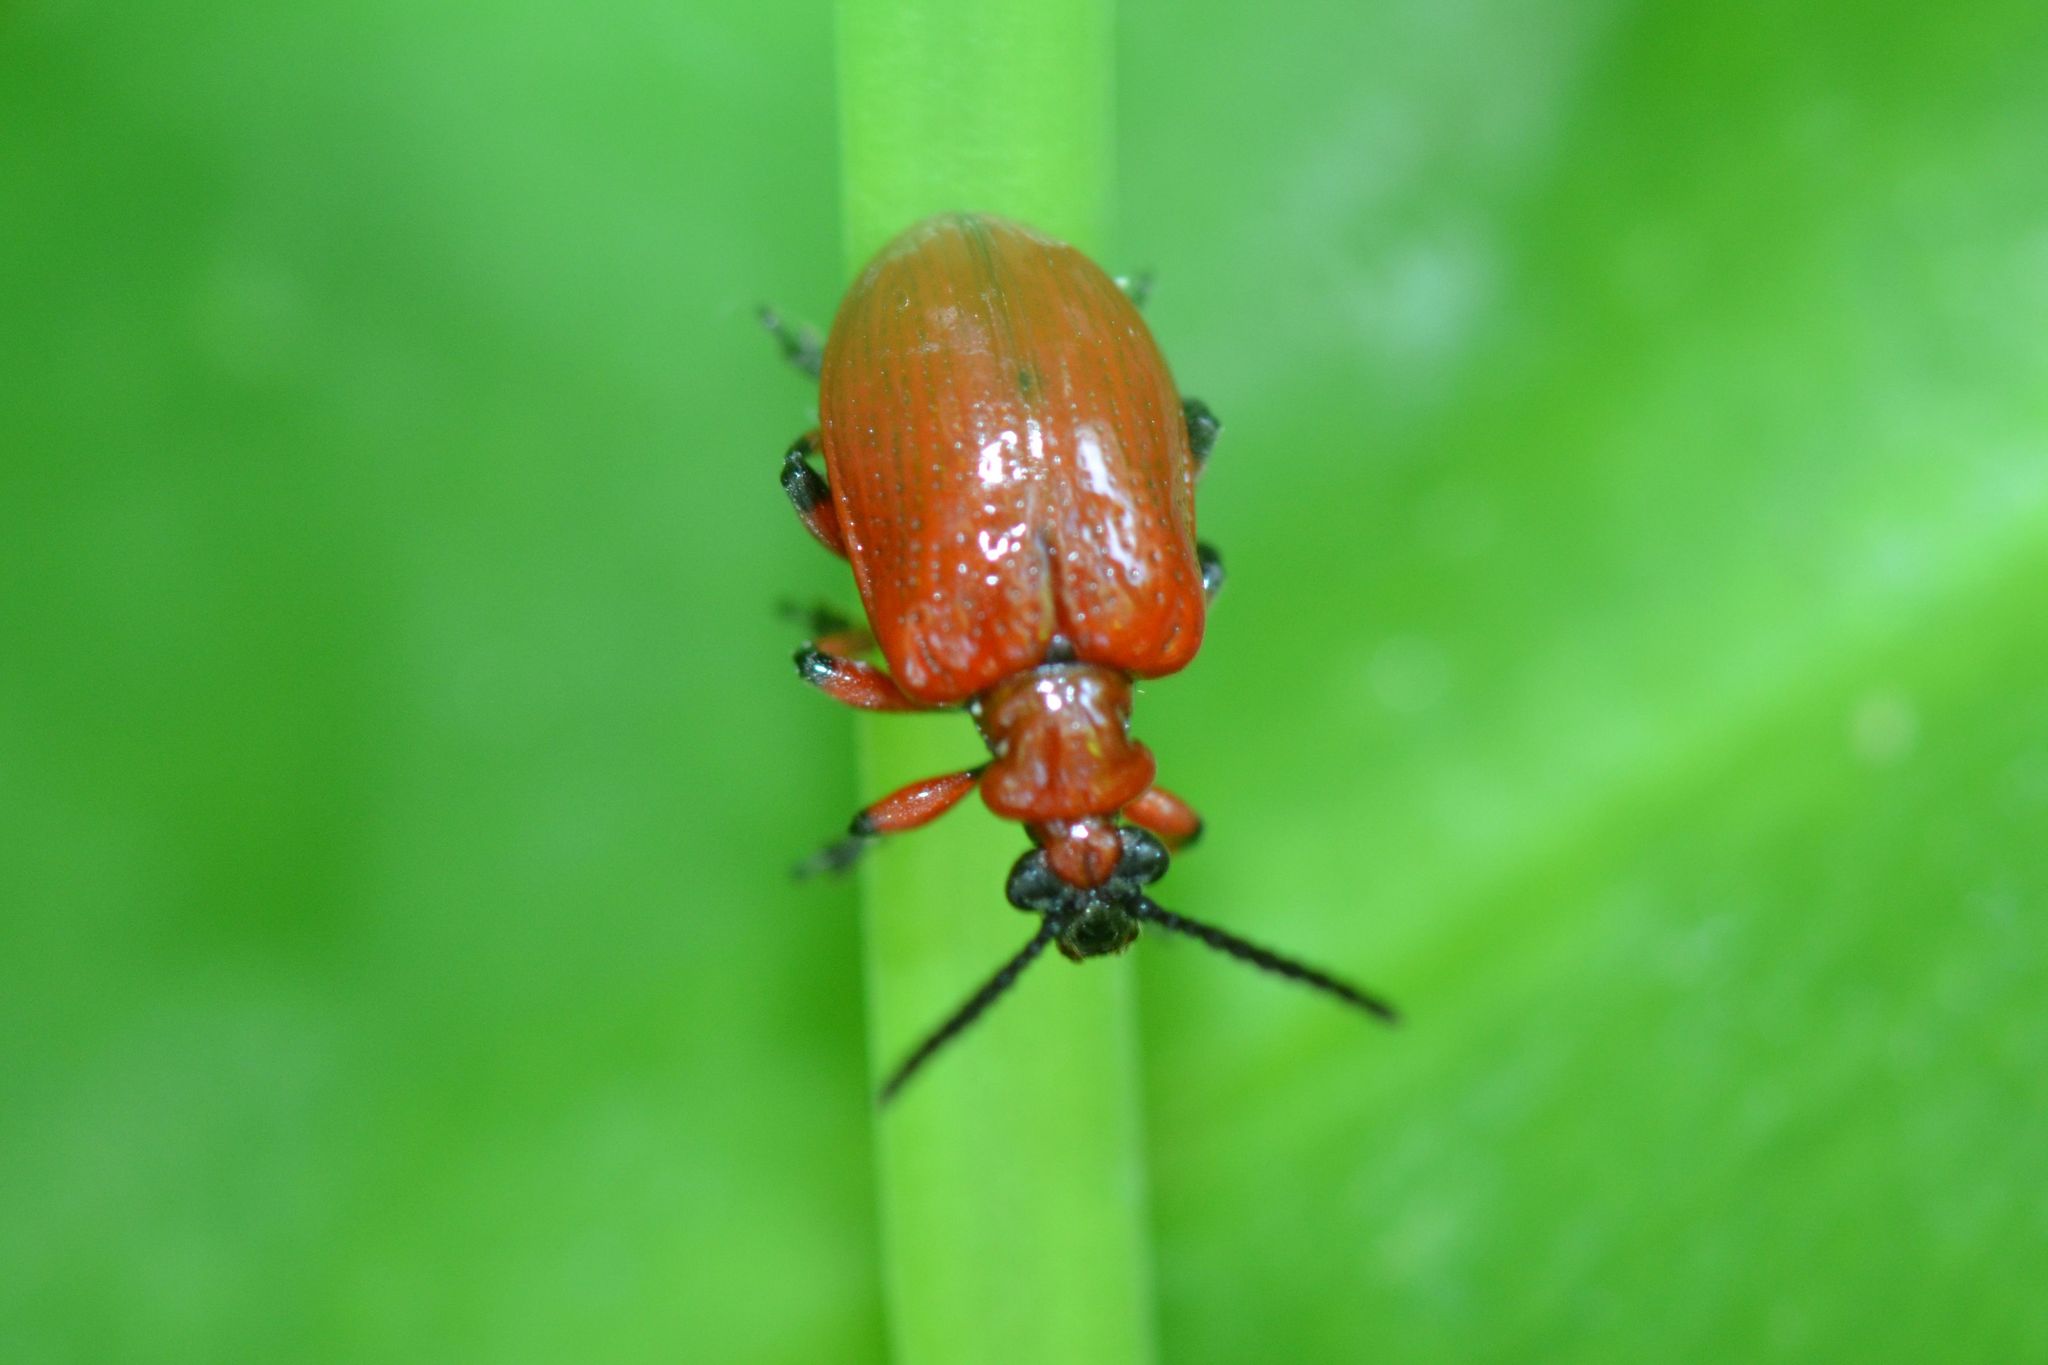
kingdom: Animalia
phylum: Arthropoda
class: Insecta
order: Coleoptera
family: Chrysomelidae
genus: Lilioceris
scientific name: Lilioceris merdigera
